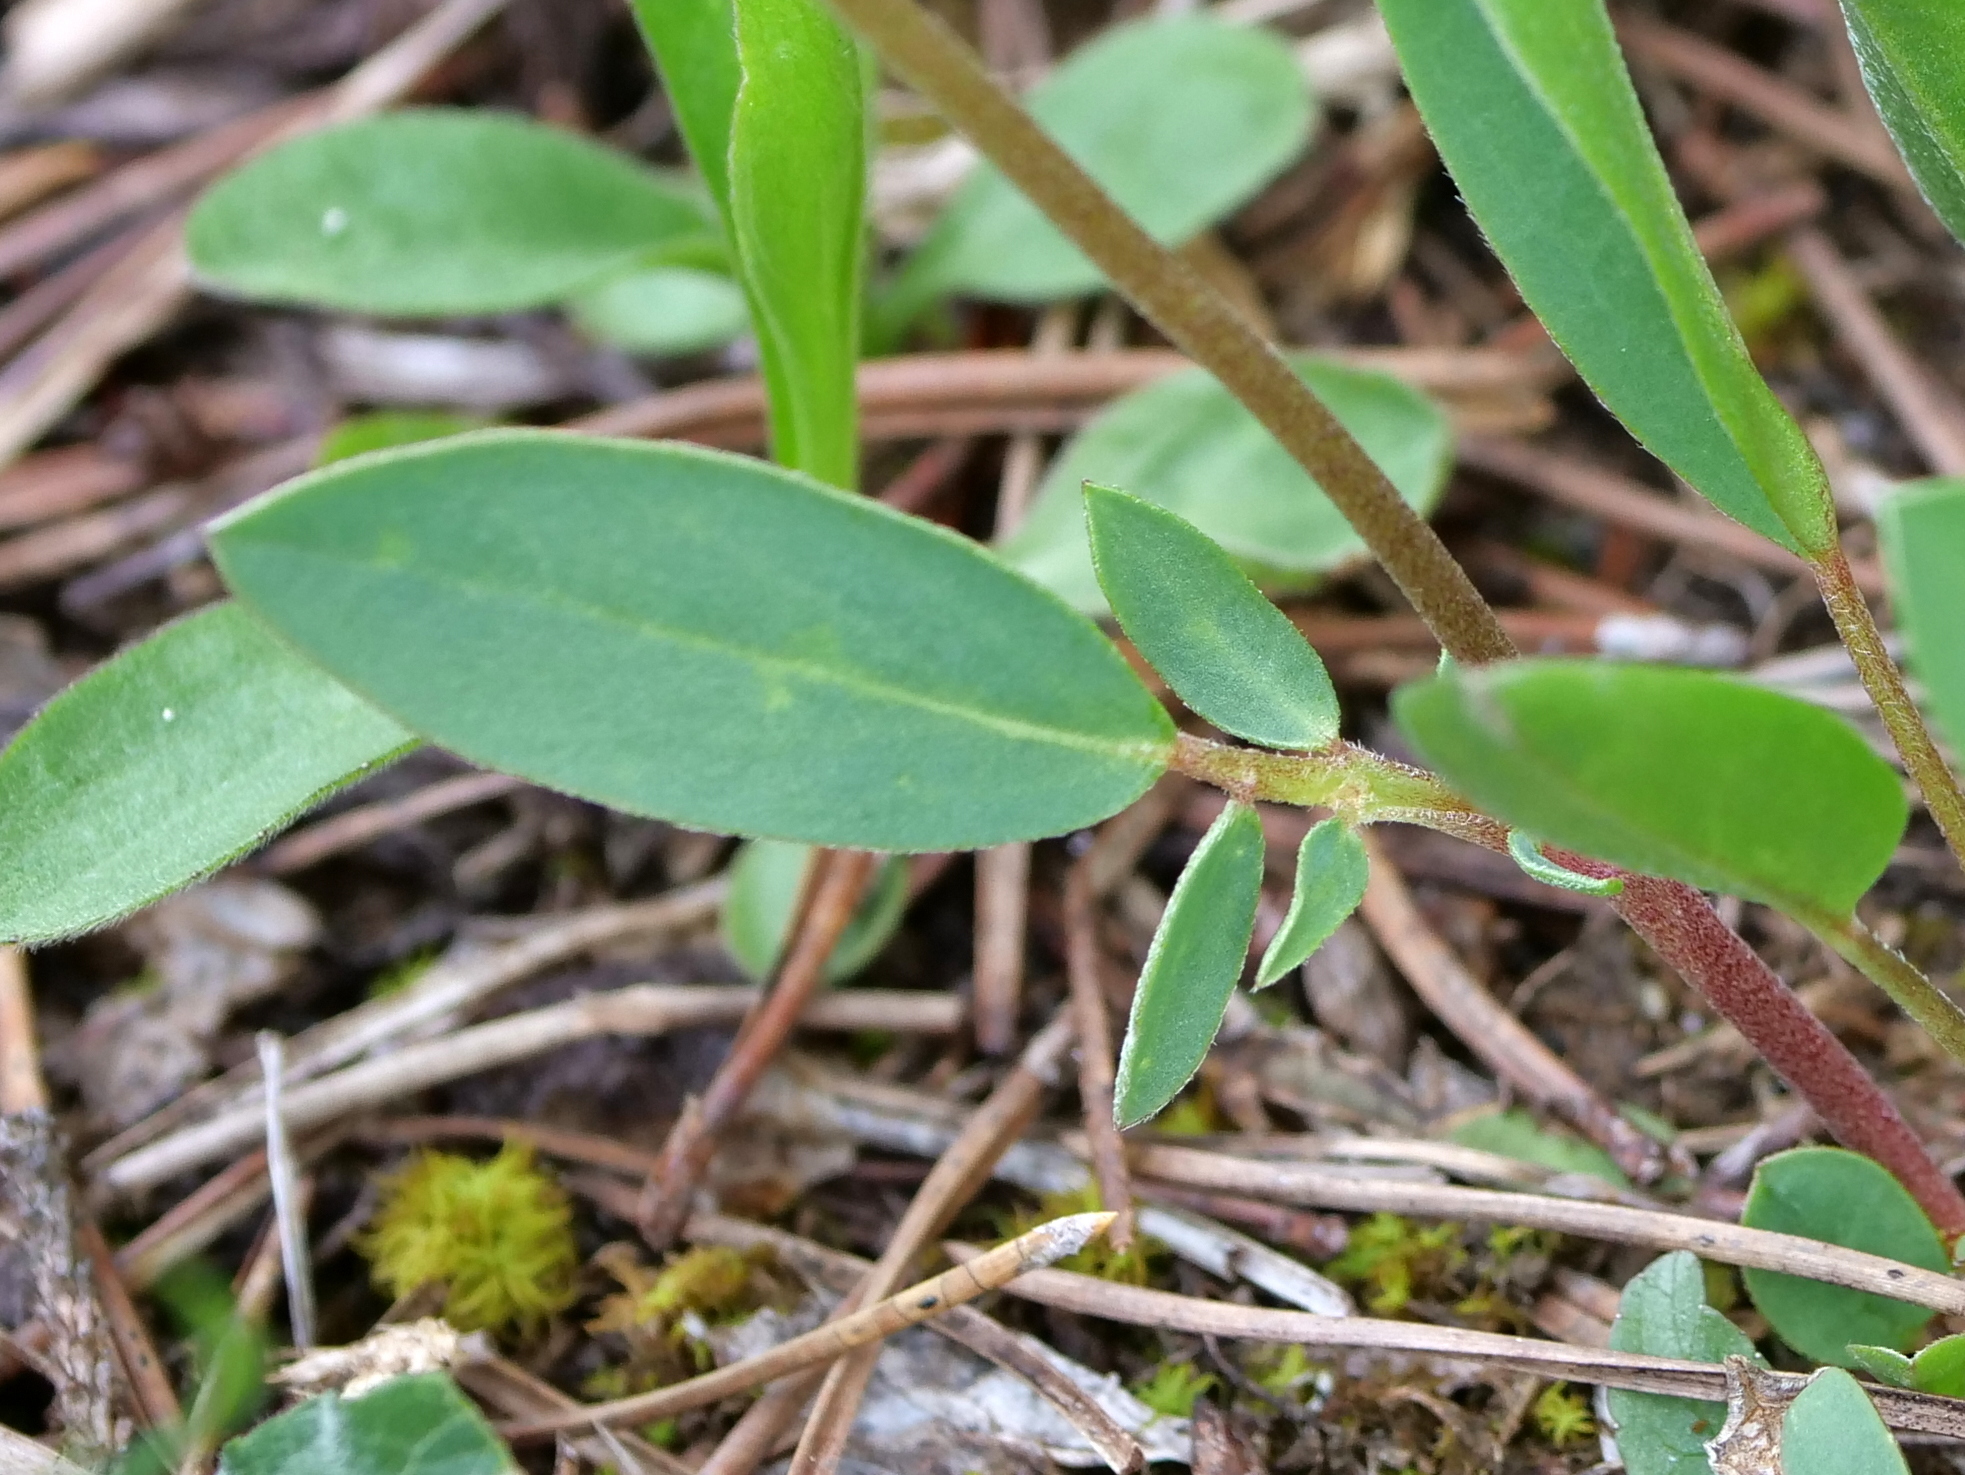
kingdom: Plantae
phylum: Tracheophyta
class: Magnoliopsida
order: Fabales
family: Fabaceae
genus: Anthyllis
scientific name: Anthyllis vulneraria
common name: Kidney vetch
